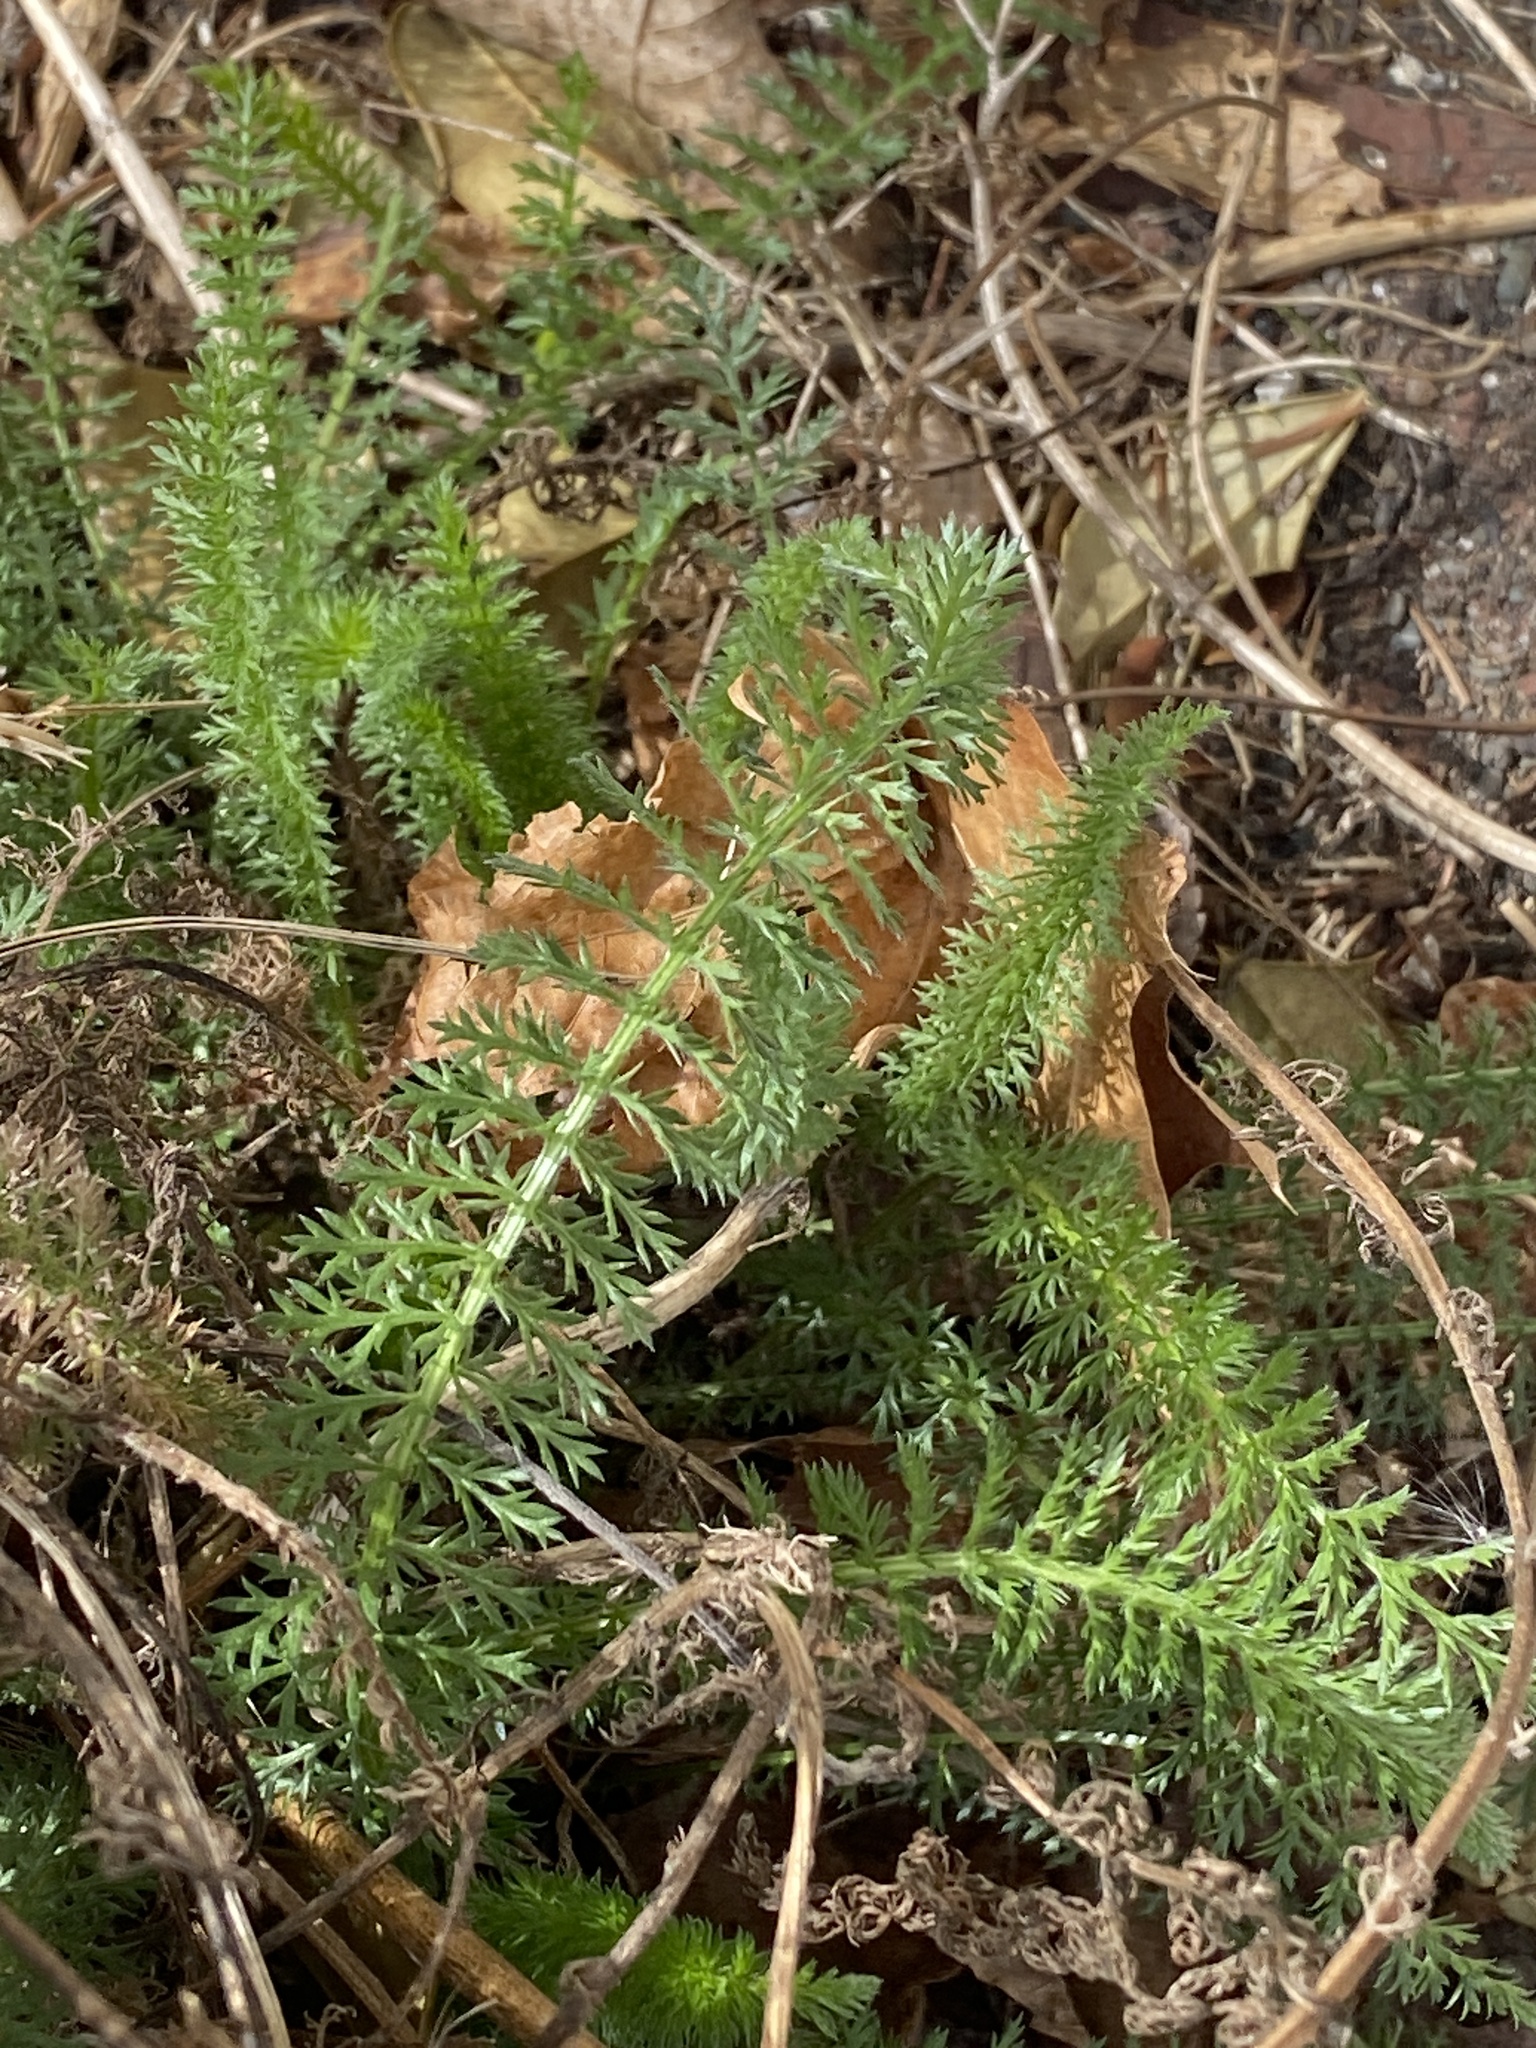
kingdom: Plantae
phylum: Tracheophyta
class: Magnoliopsida
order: Asterales
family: Asteraceae
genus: Achillea
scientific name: Achillea millefolium
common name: Yarrow
